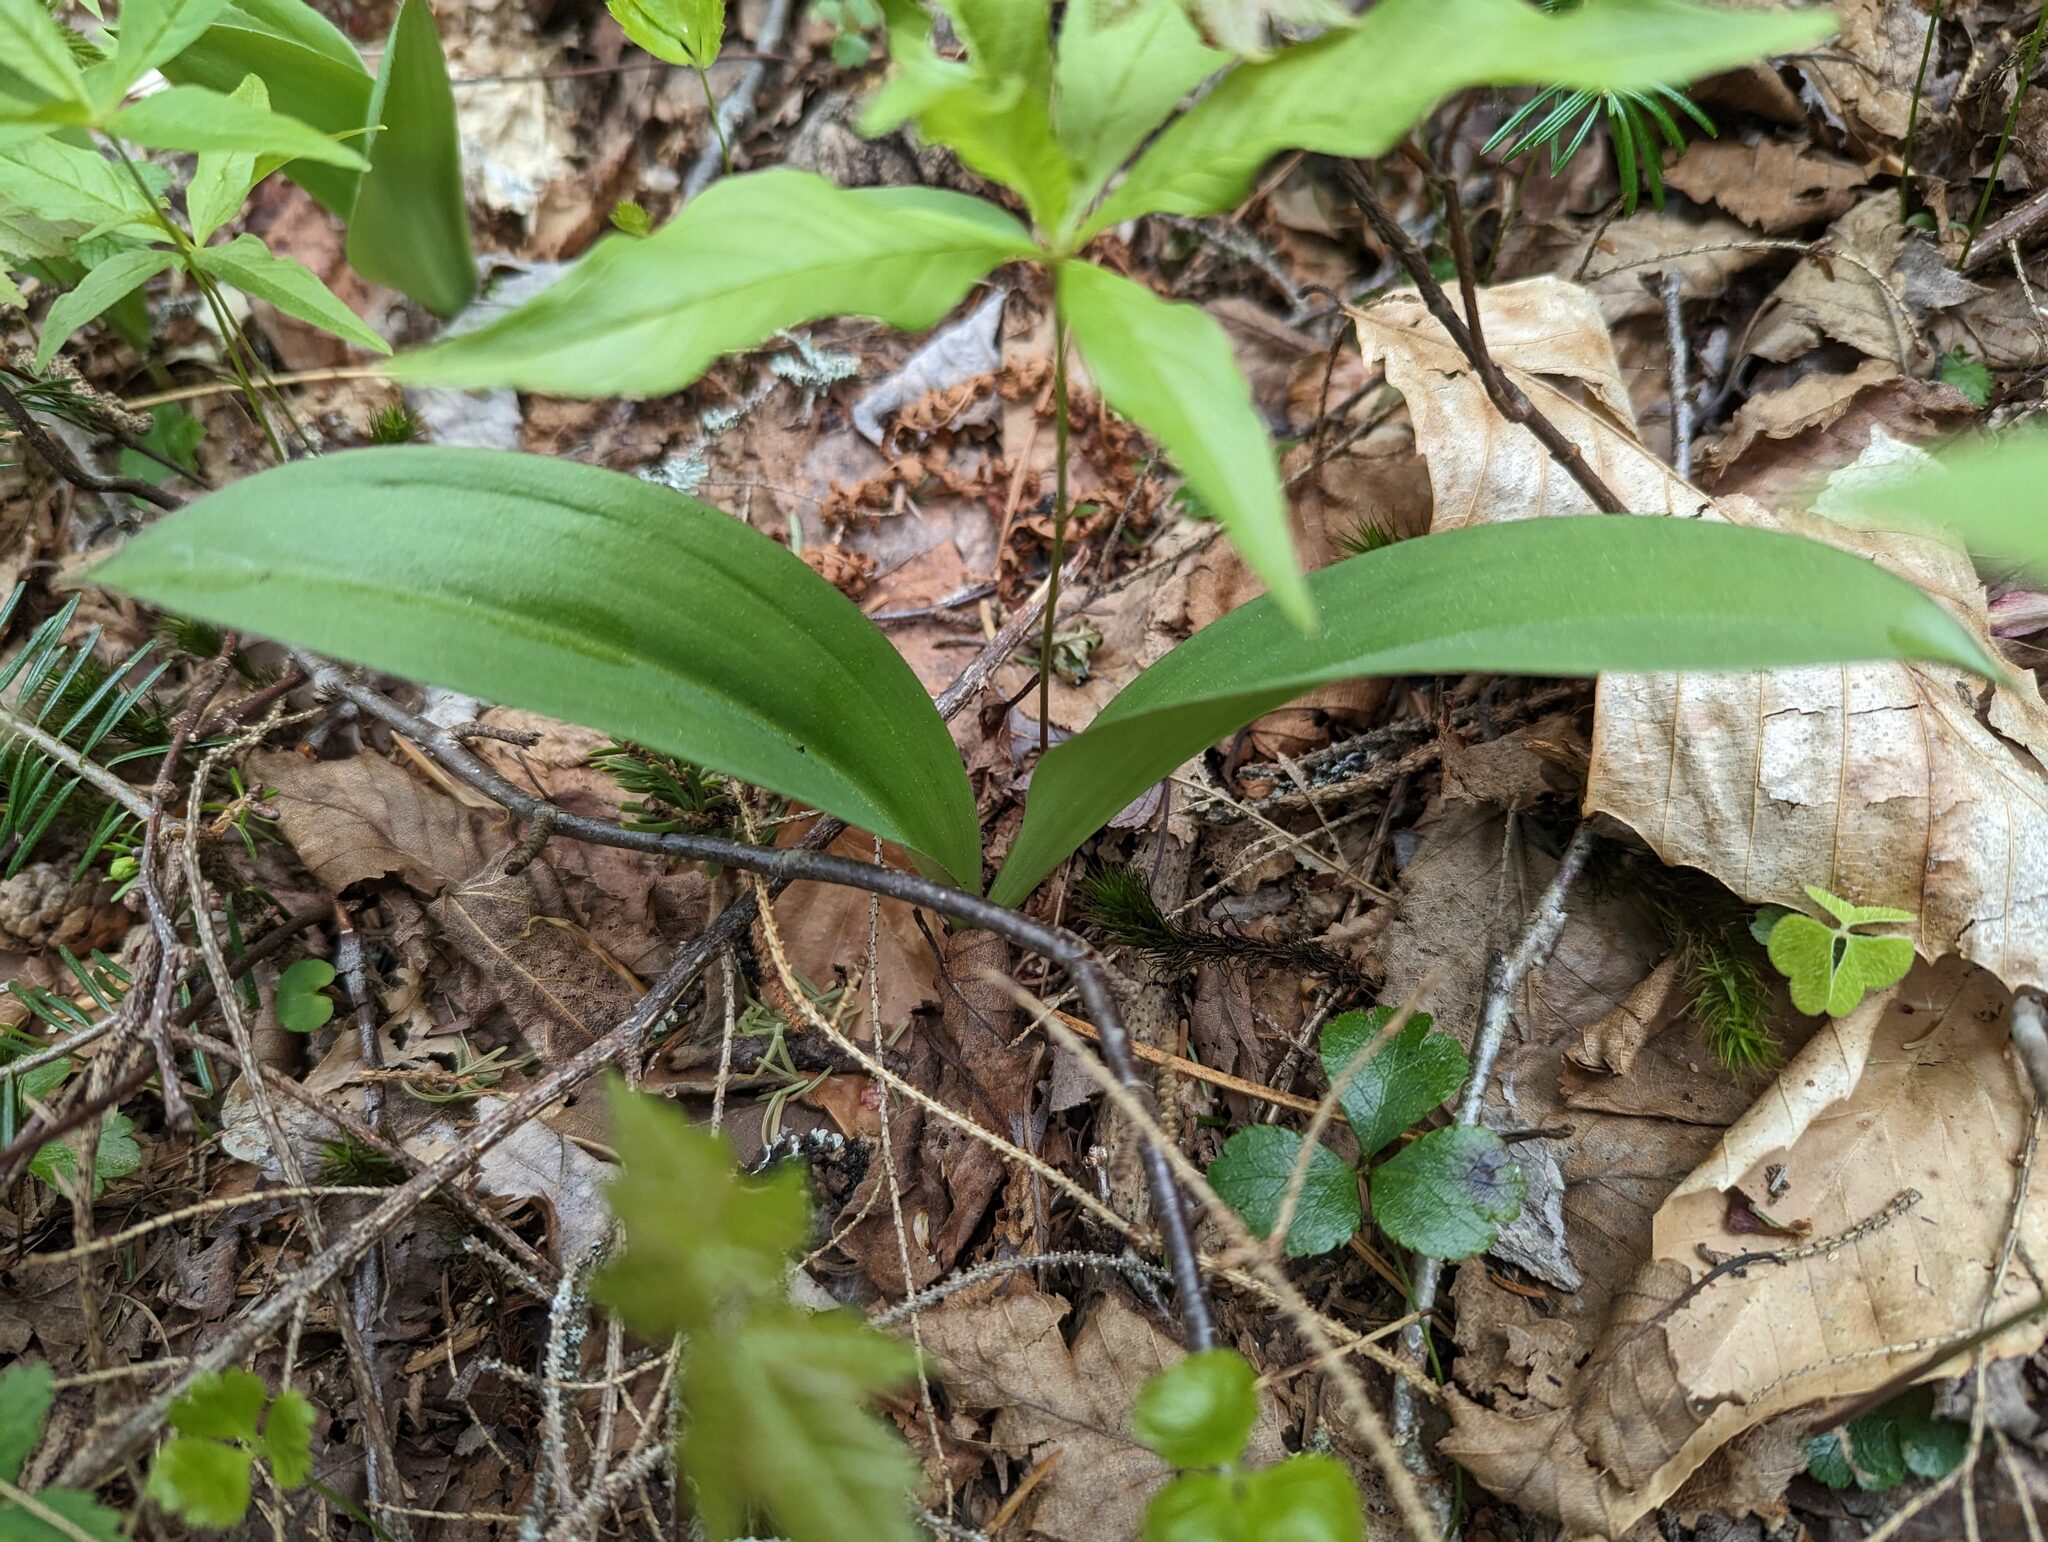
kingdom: Plantae
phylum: Tracheophyta
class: Liliopsida
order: Liliales
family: Liliaceae
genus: Clintonia
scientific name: Clintonia borealis
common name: Yellow clintonia
